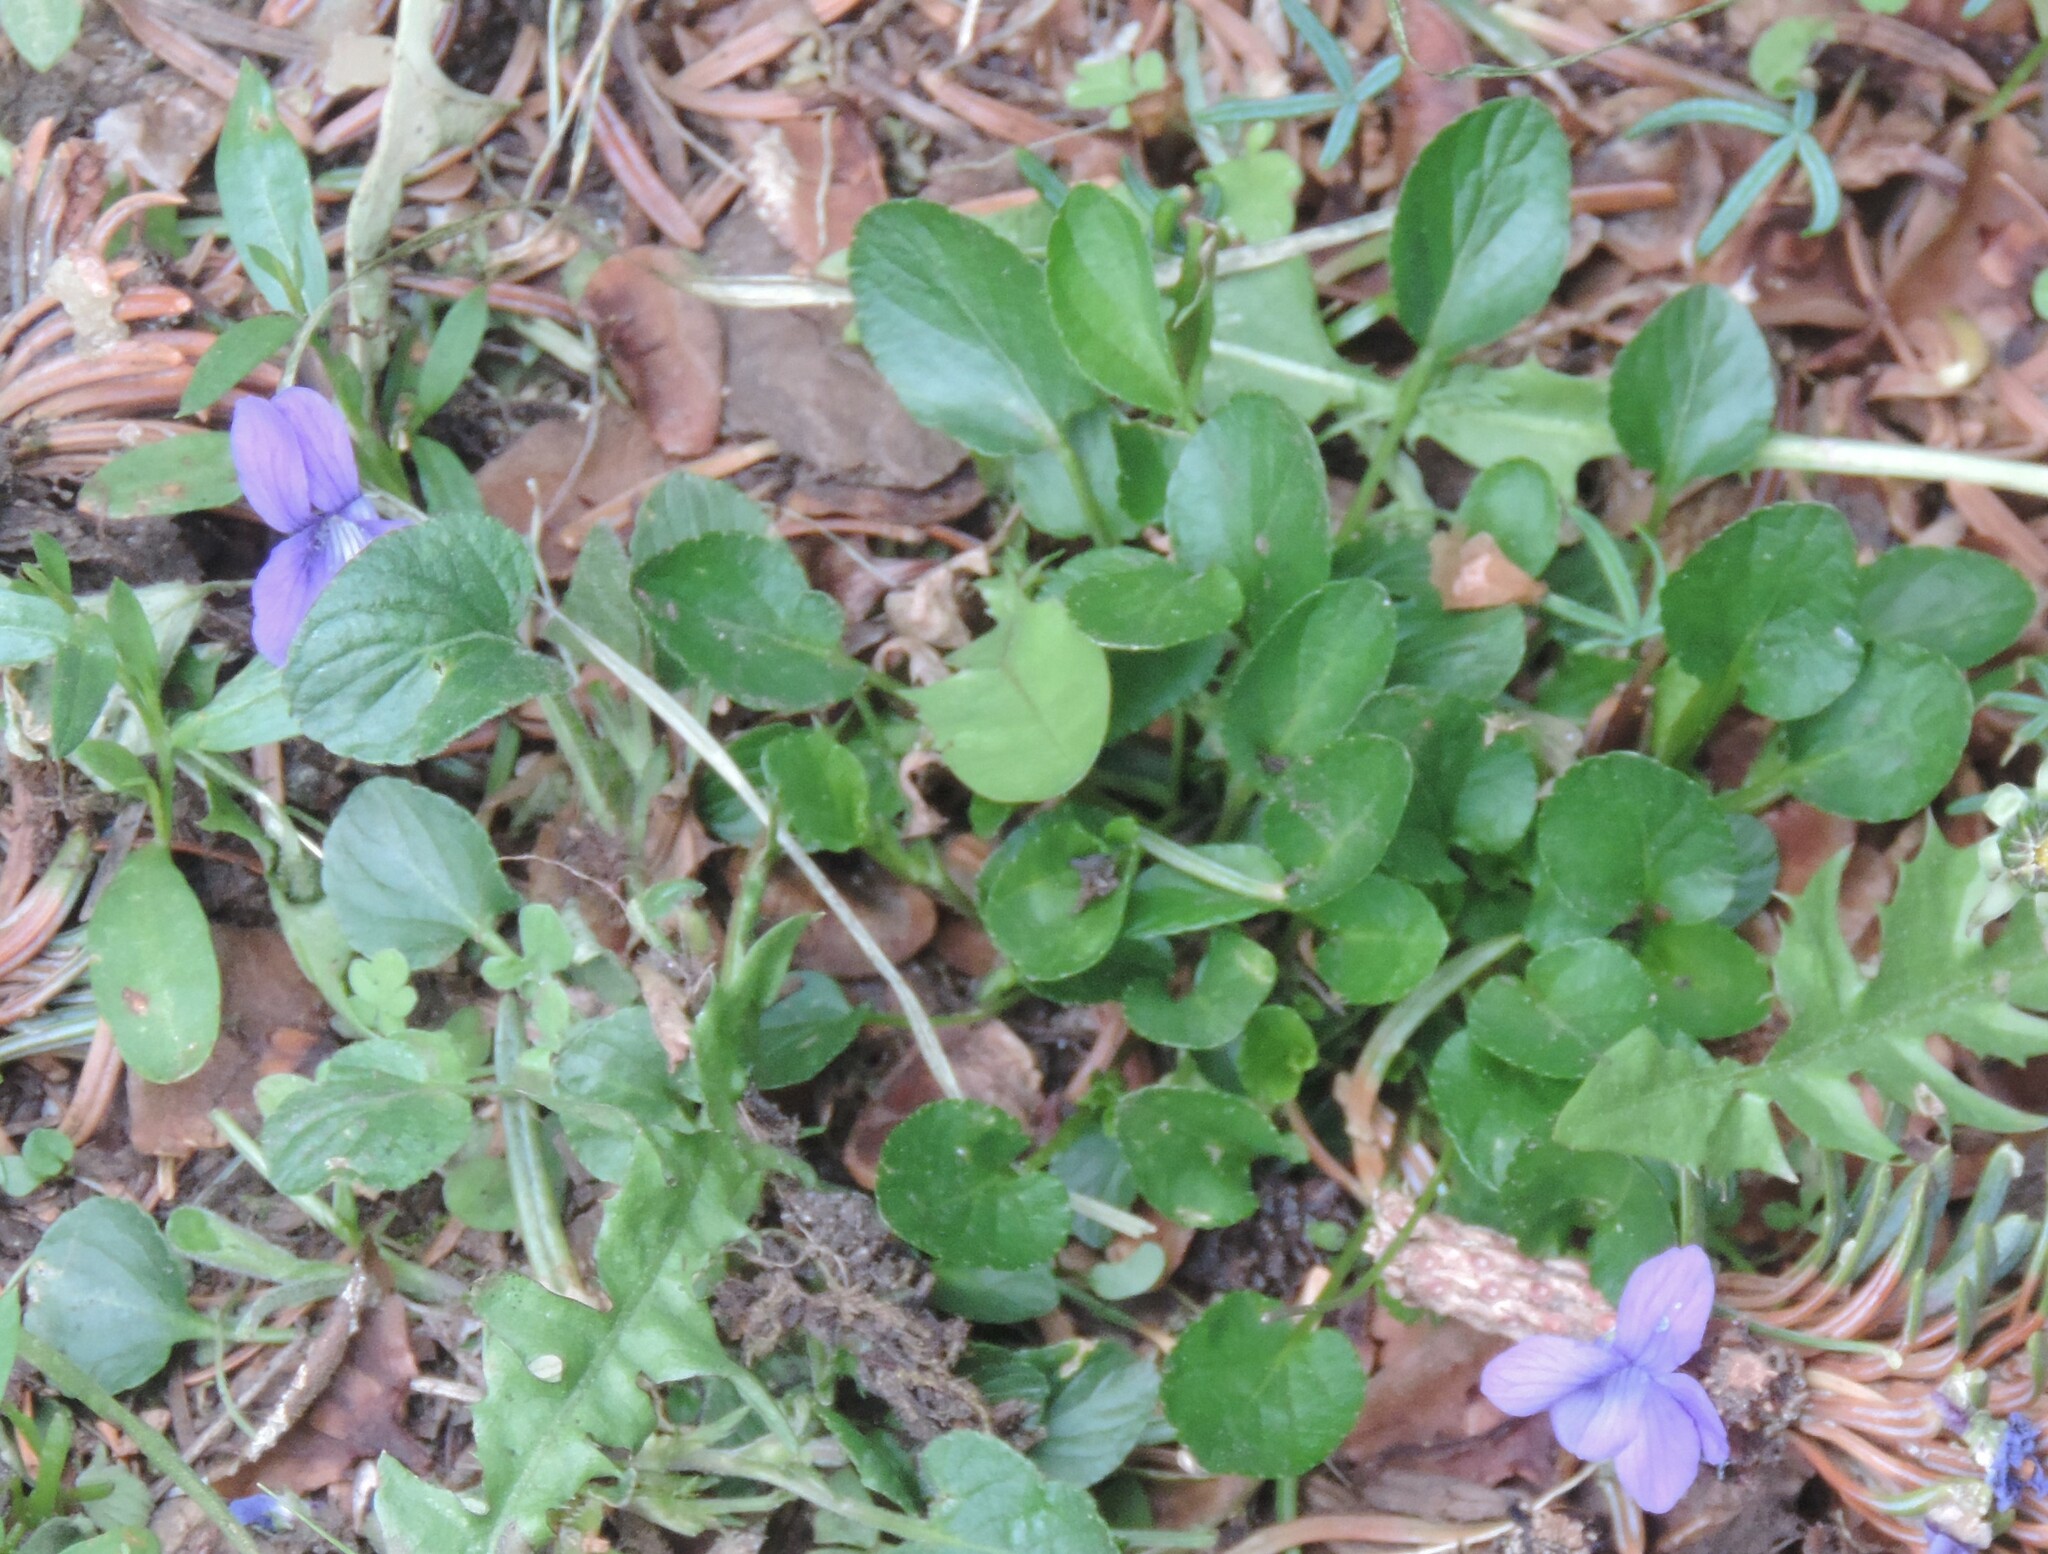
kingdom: Plantae
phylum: Tracheophyta
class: Magnoliopsida
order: Malpighiales
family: Violaceae
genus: Viola
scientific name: Viola adunca
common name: Sand violet
